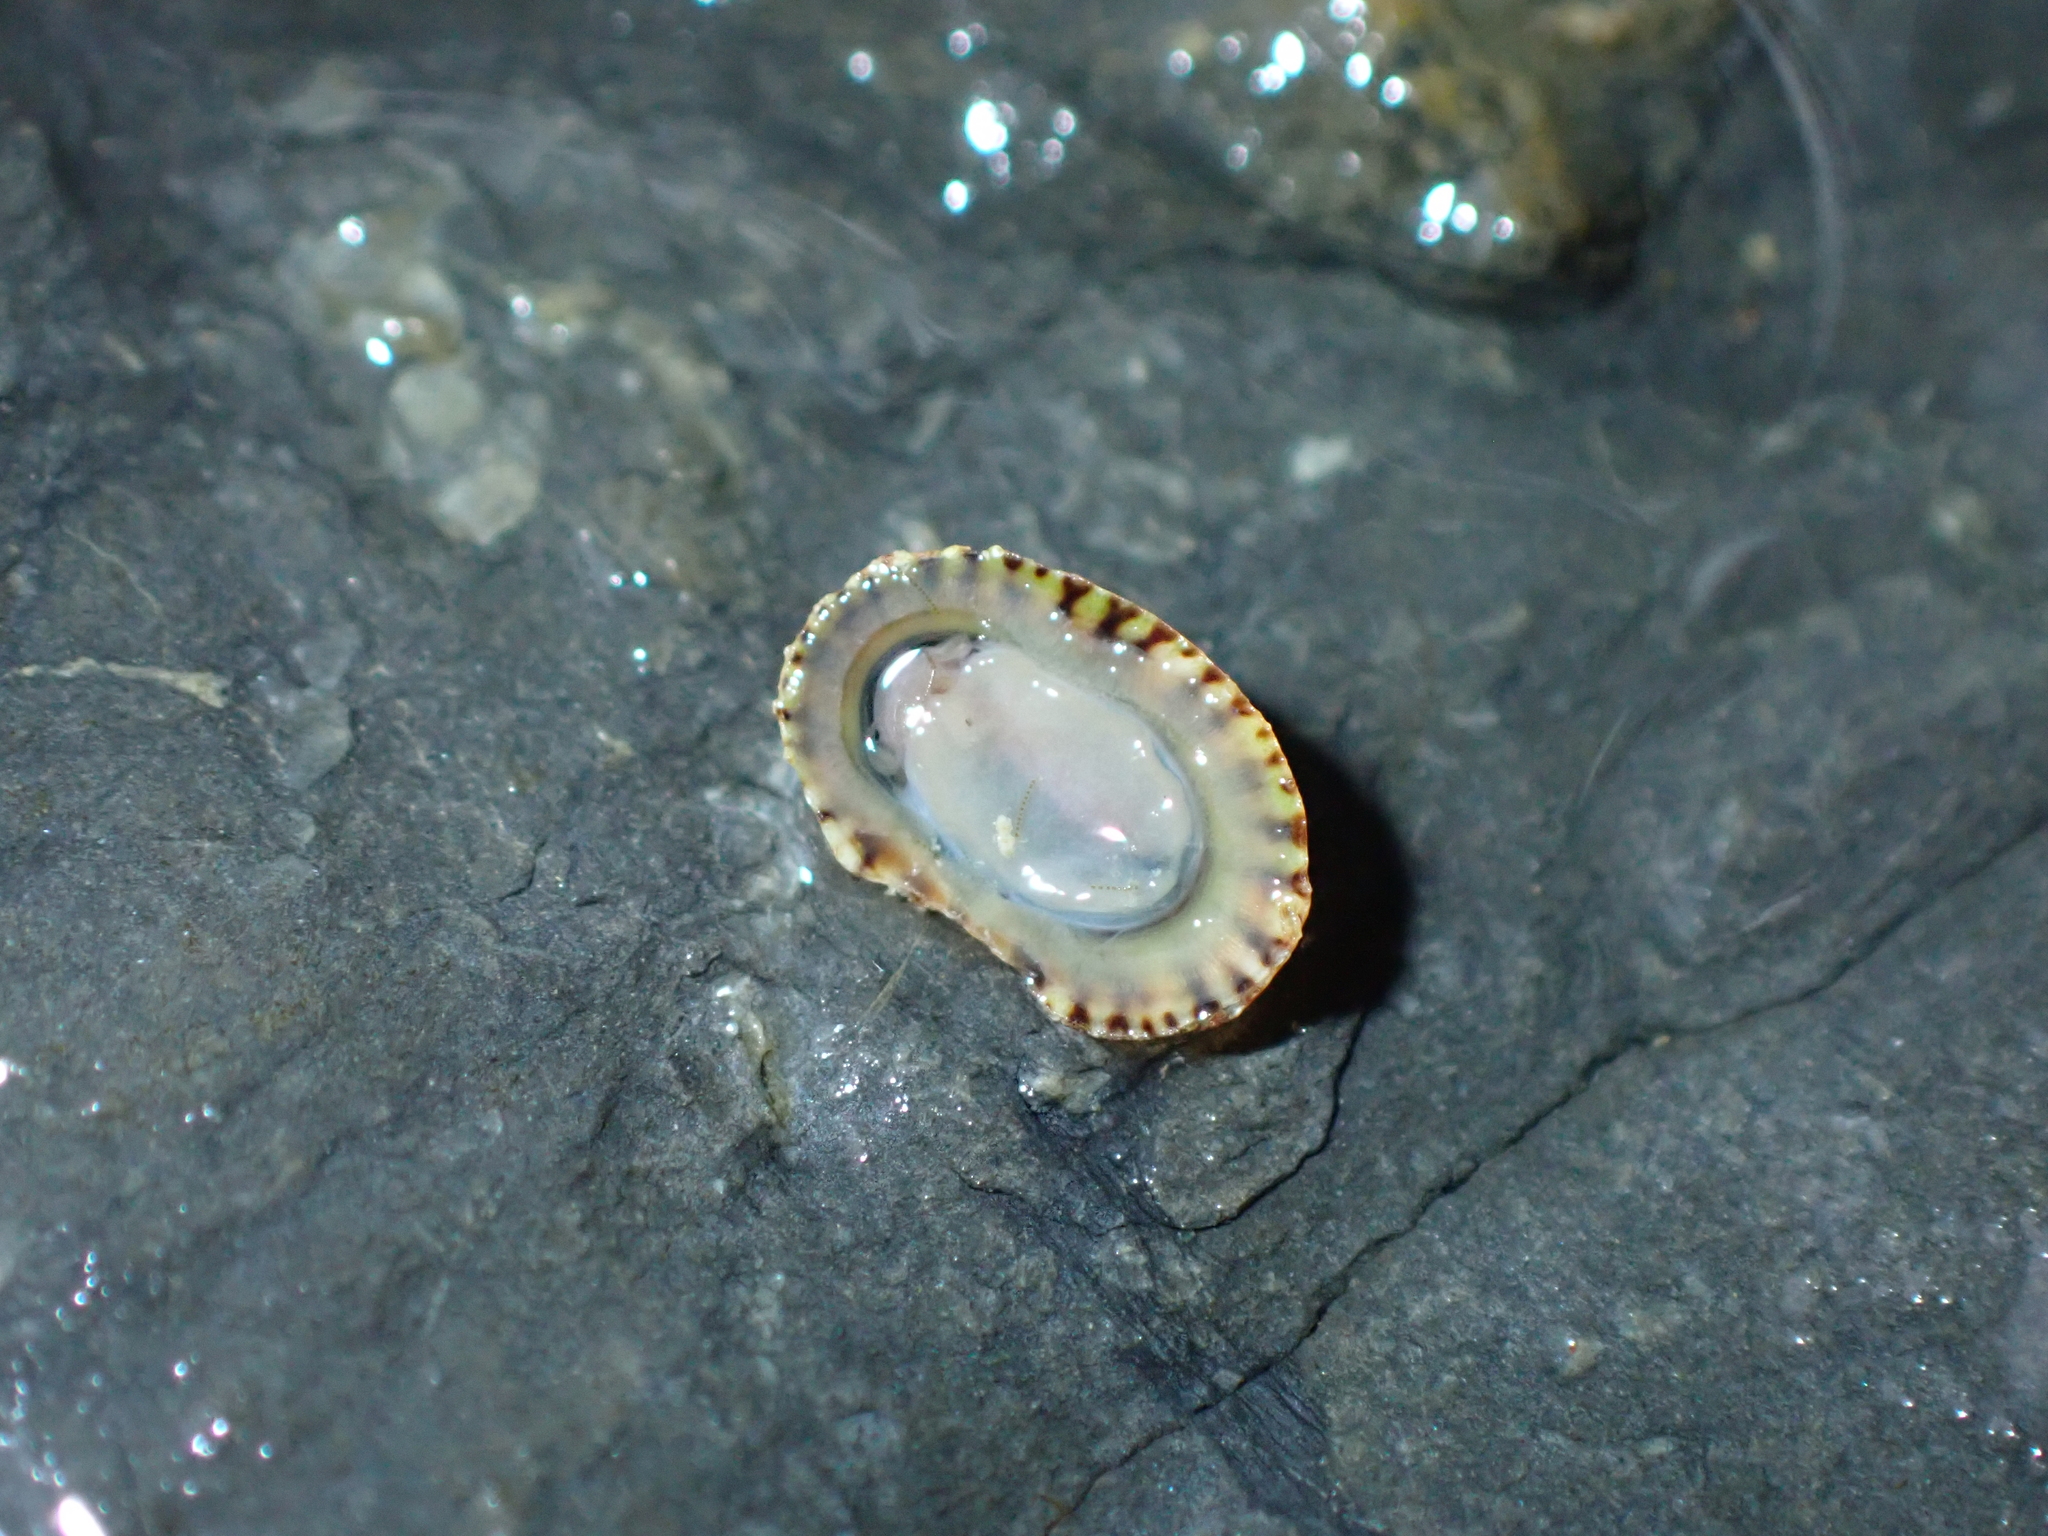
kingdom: Animalia
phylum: Mollusca
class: Gastropoda
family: Lottiidae
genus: Notoacmea
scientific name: Notoacmea scopulina
